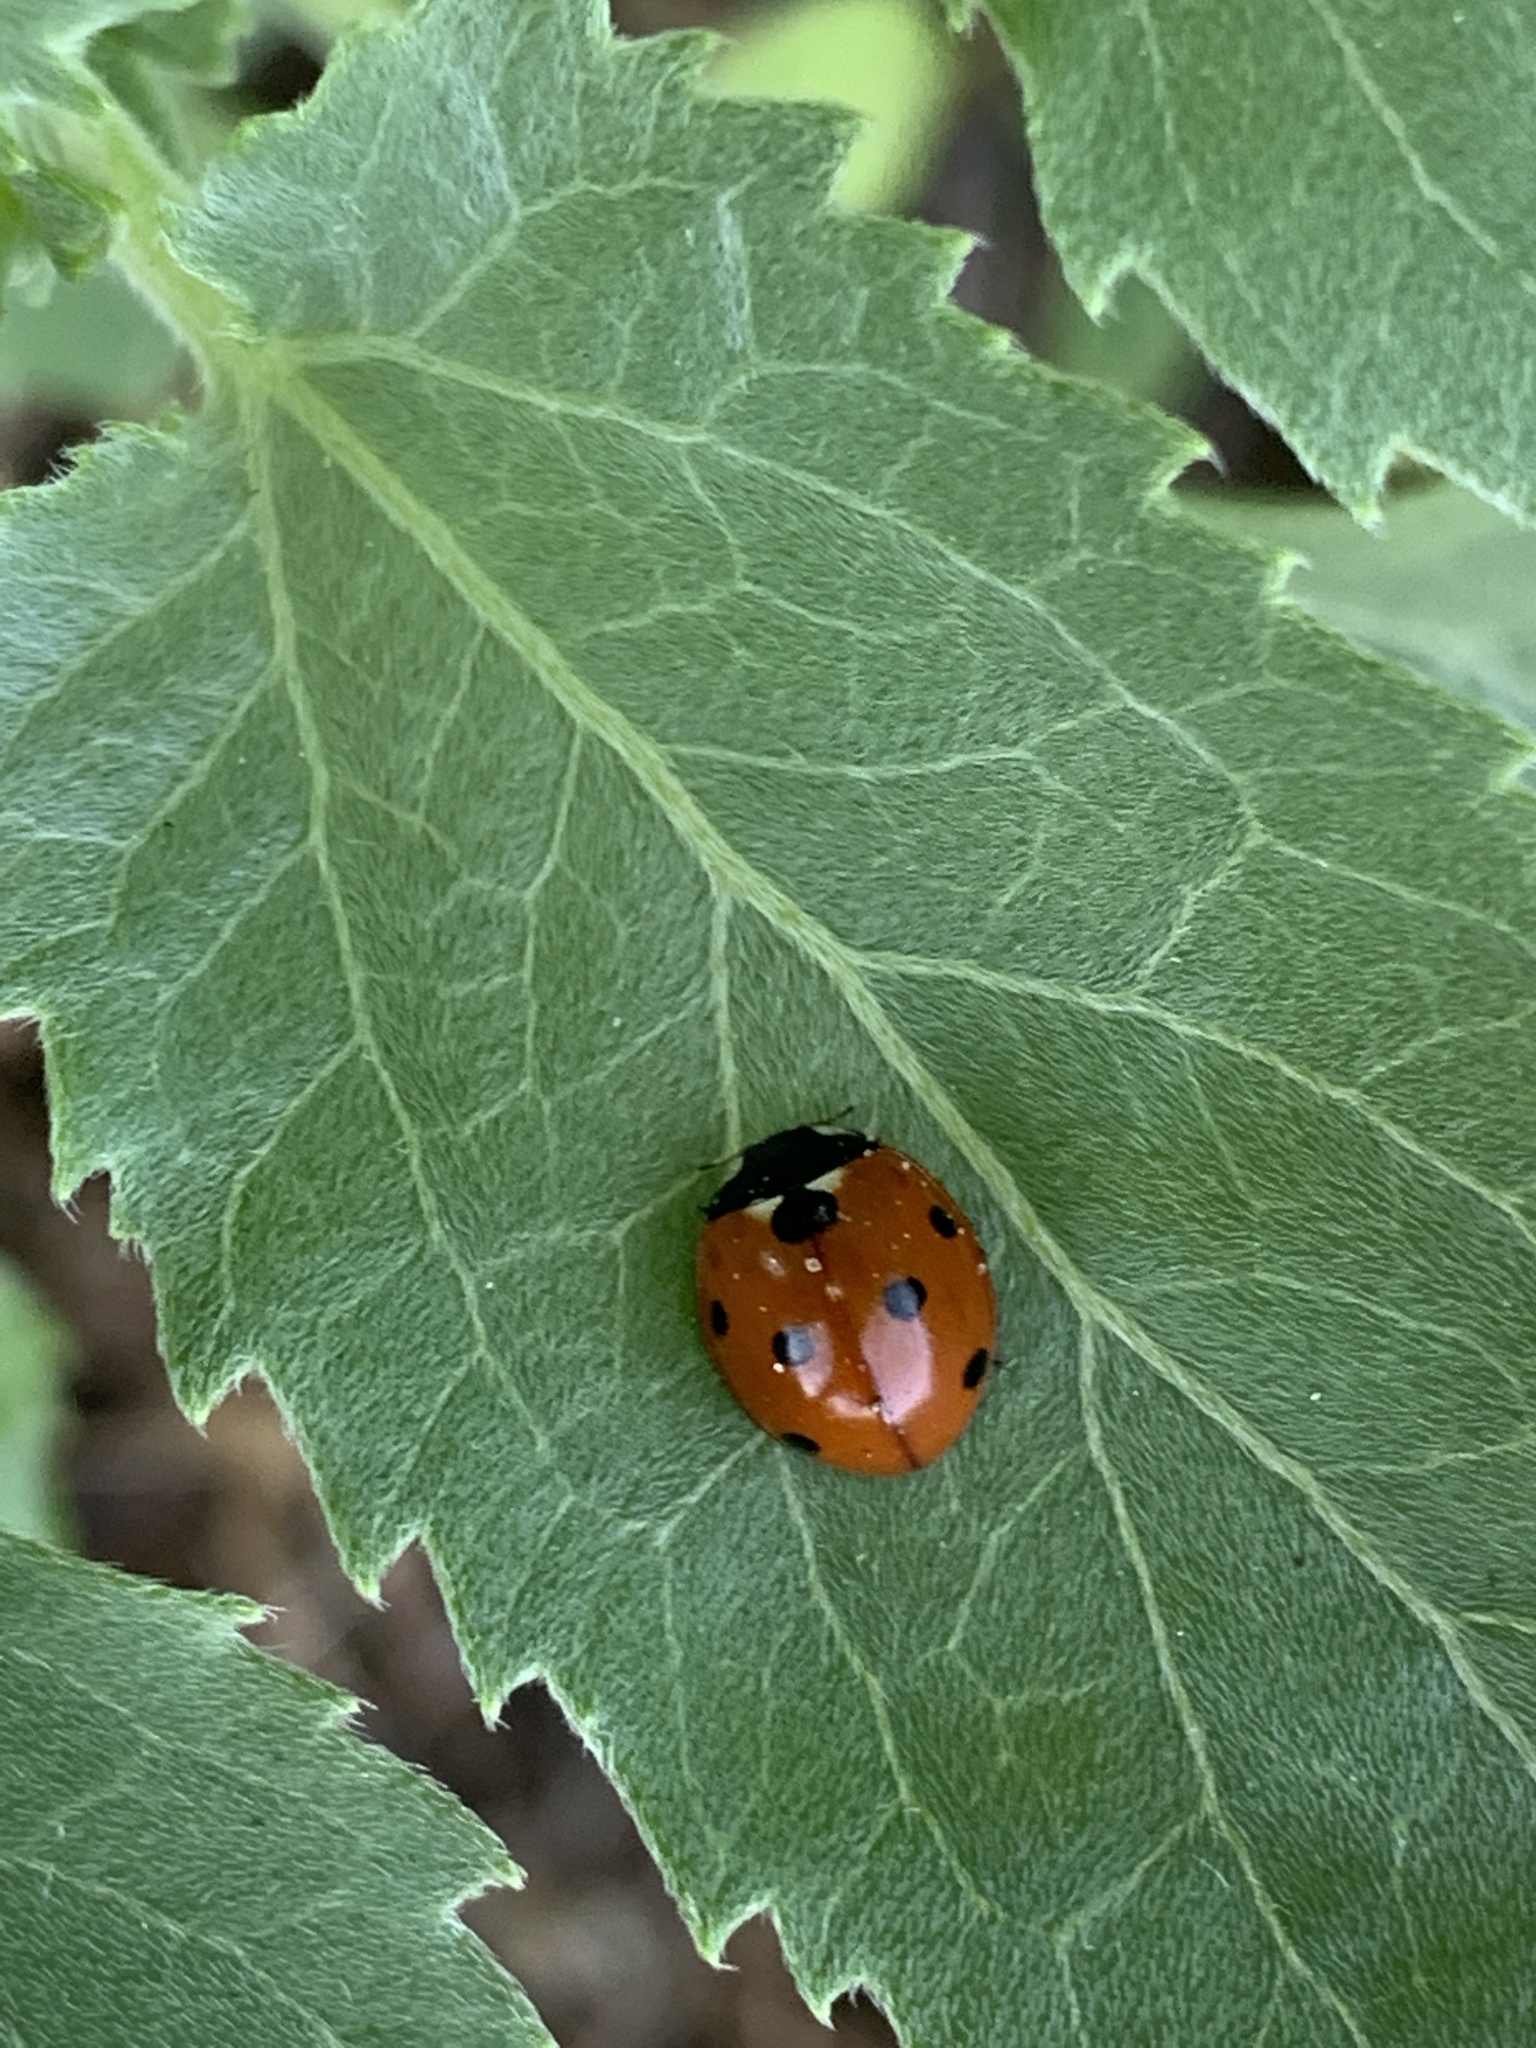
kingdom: Animalia
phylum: Arthropoda
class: Insecta
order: Coleoptera
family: Coccinellidae
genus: Coccinella
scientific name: Coccinella septempunctata
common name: Sevenspotted lady beetle
